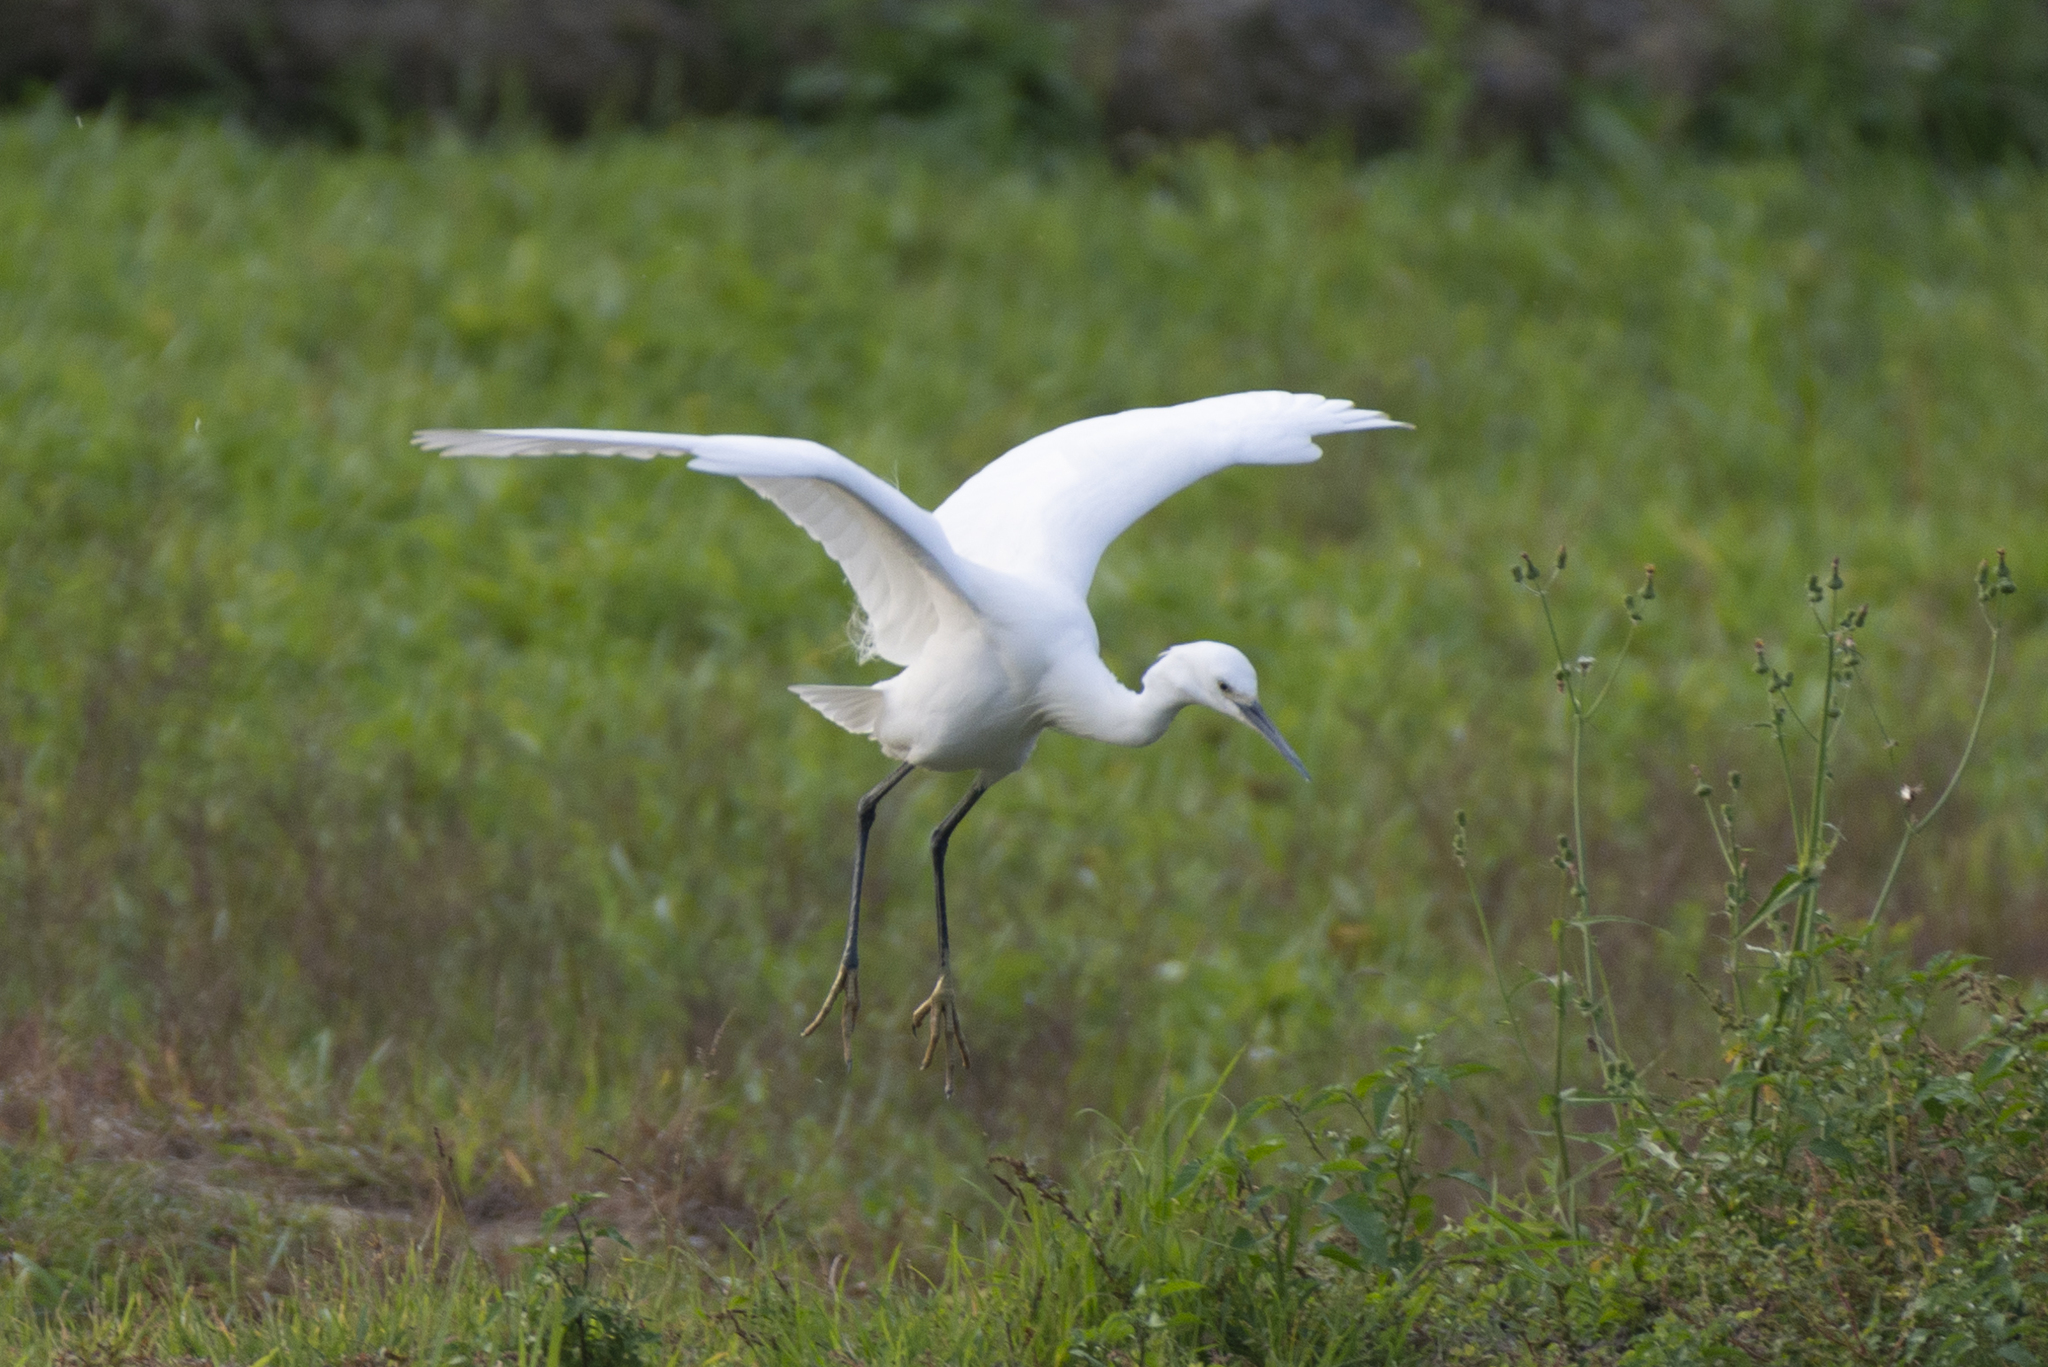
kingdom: Animalia
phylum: Chordata
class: Aves
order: Pelecaniformes
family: Ardeidae
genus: Egretta
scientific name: Egretta garzetta
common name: Little egret
